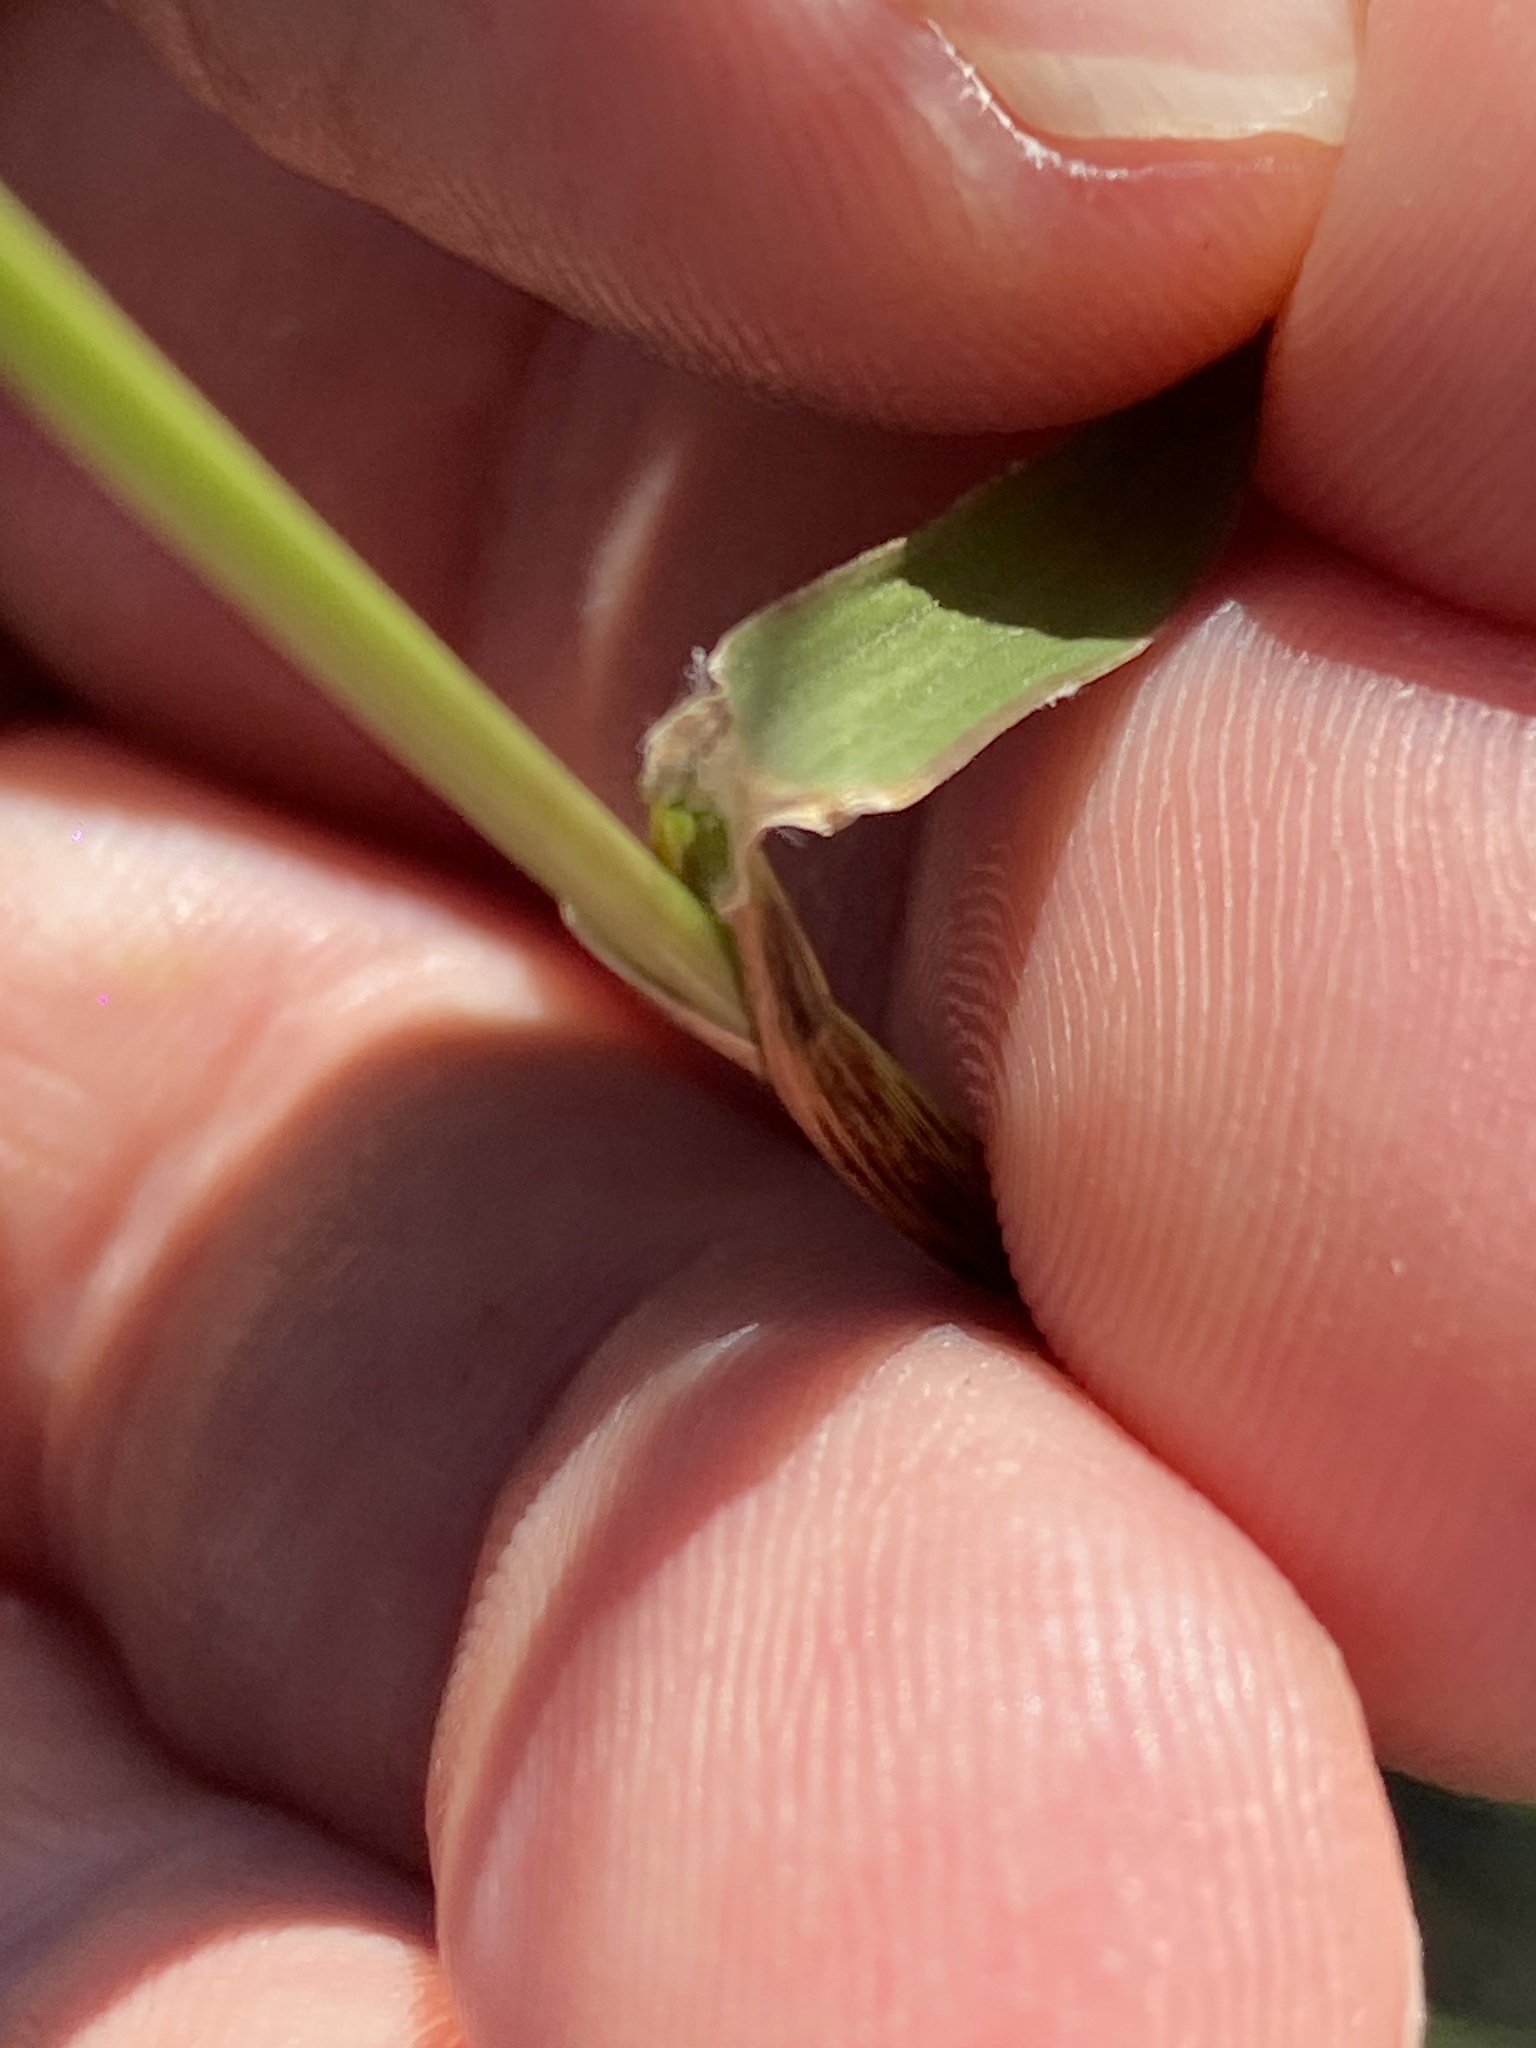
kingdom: Plantae
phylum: Tracheophyta
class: Liliopsida
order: Poales
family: Poaceae
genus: Chloris
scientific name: Chloris gayana
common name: Rhodes grass
